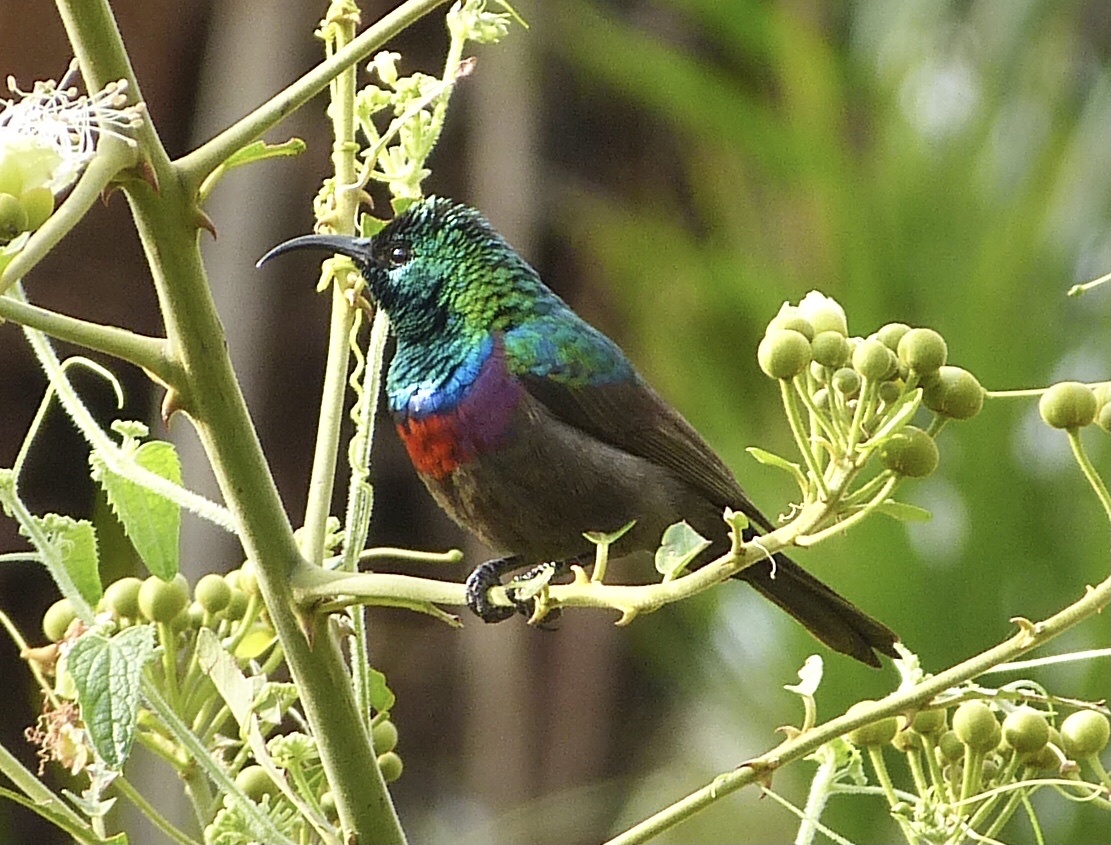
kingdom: Animalia
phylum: Chordata
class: Aves
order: Passeriformes
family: Nectariniidae
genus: Cinnyris
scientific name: Cinnyris mariquensis
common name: Marico sunbird
